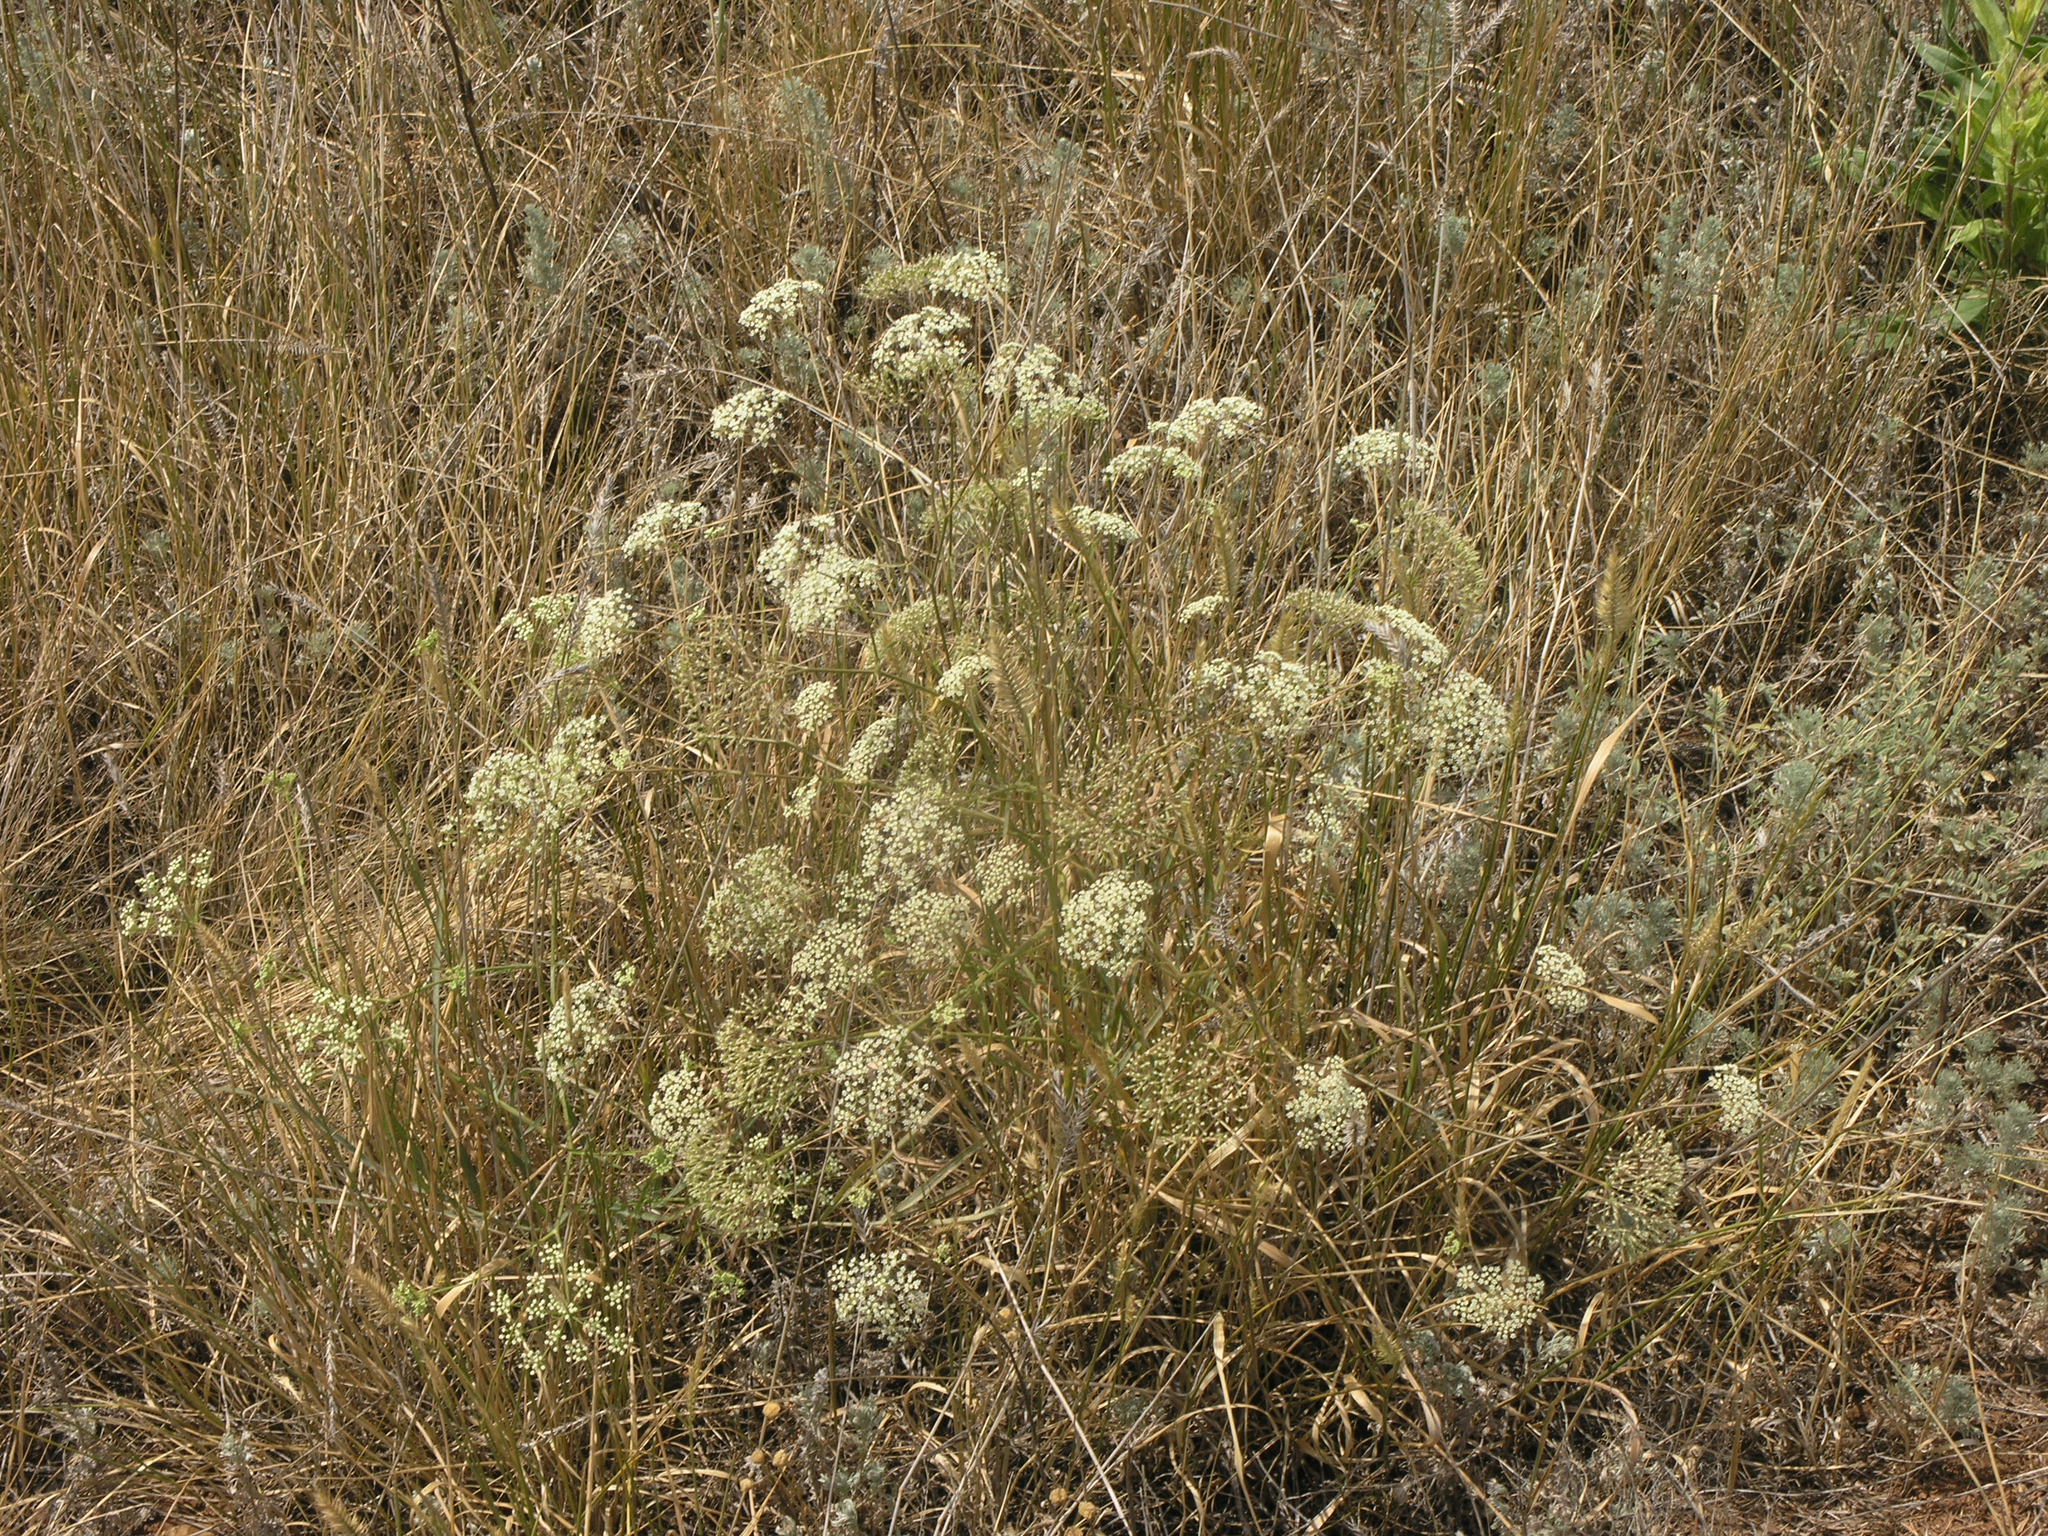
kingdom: Plantae
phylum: Tracheophyta
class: Magnoliopsida
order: Apiales
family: Apiaceae
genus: Falcaria
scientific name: Falcaria vulgaris
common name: Longleaf
